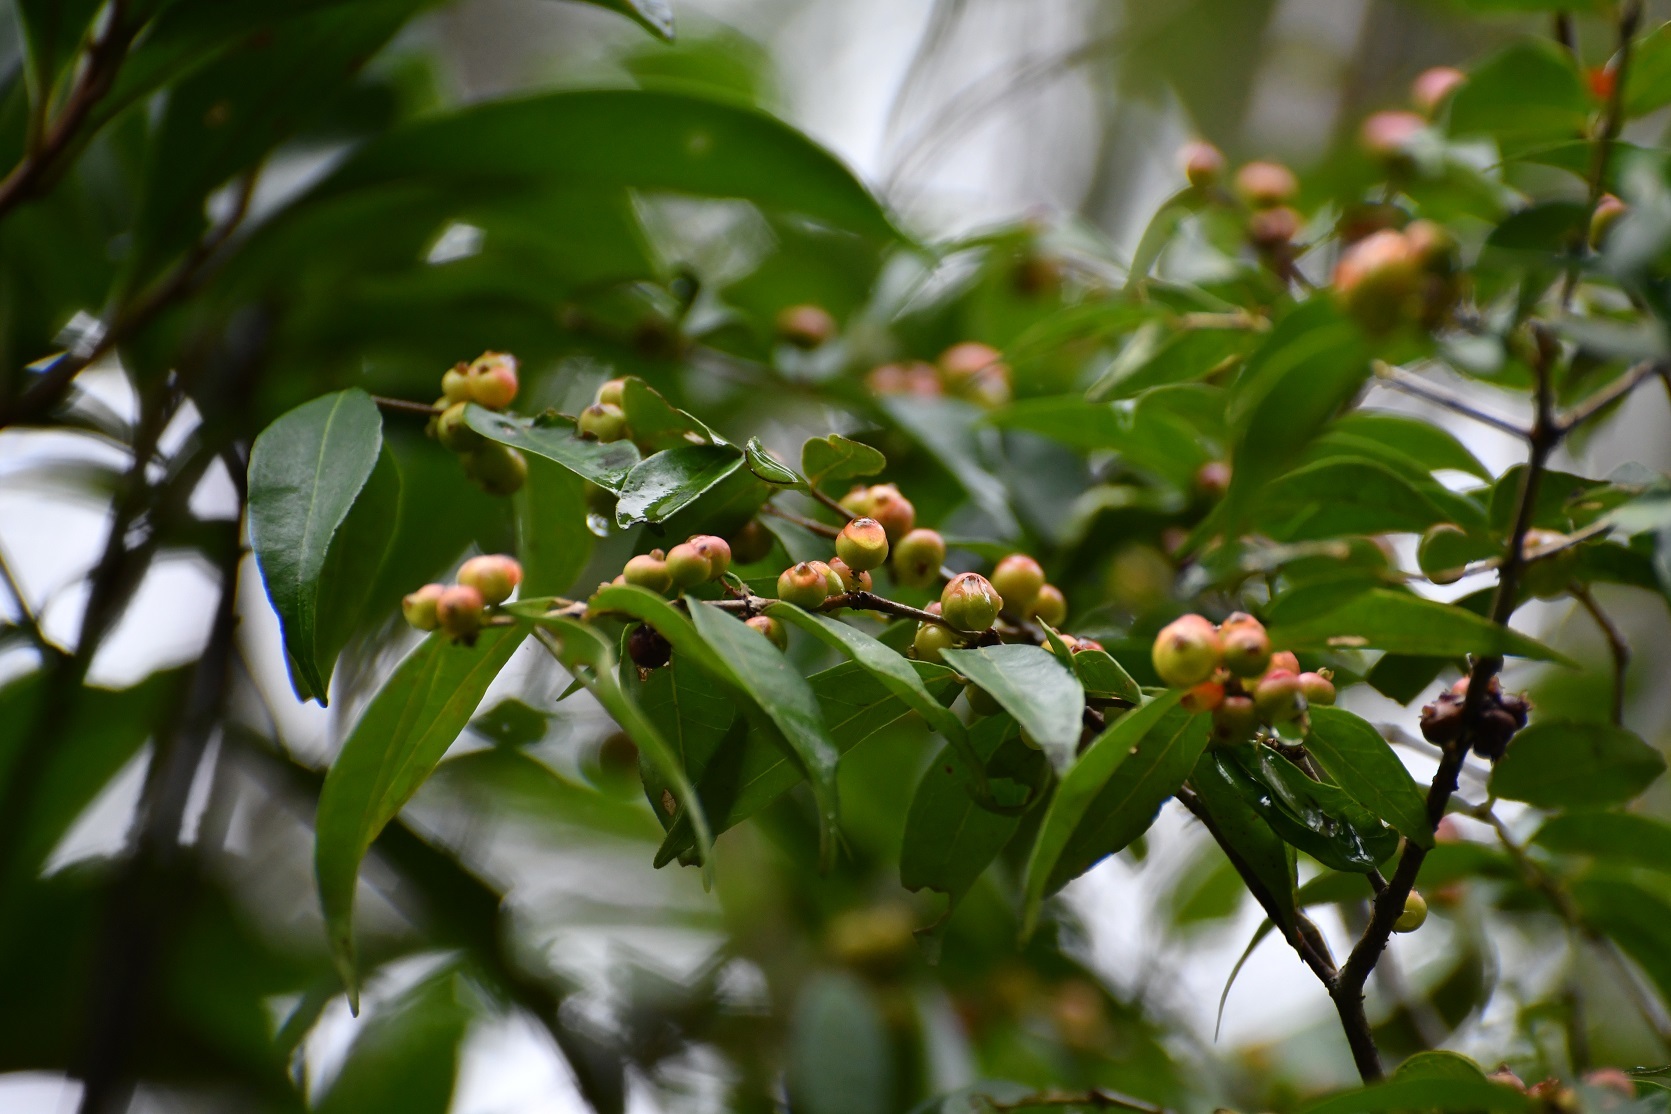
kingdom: Plantae
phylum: Tracheophyta
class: Magnoliopsida
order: Myrtales
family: Myrtaceae
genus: Eugenia
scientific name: Eugenia capuli
